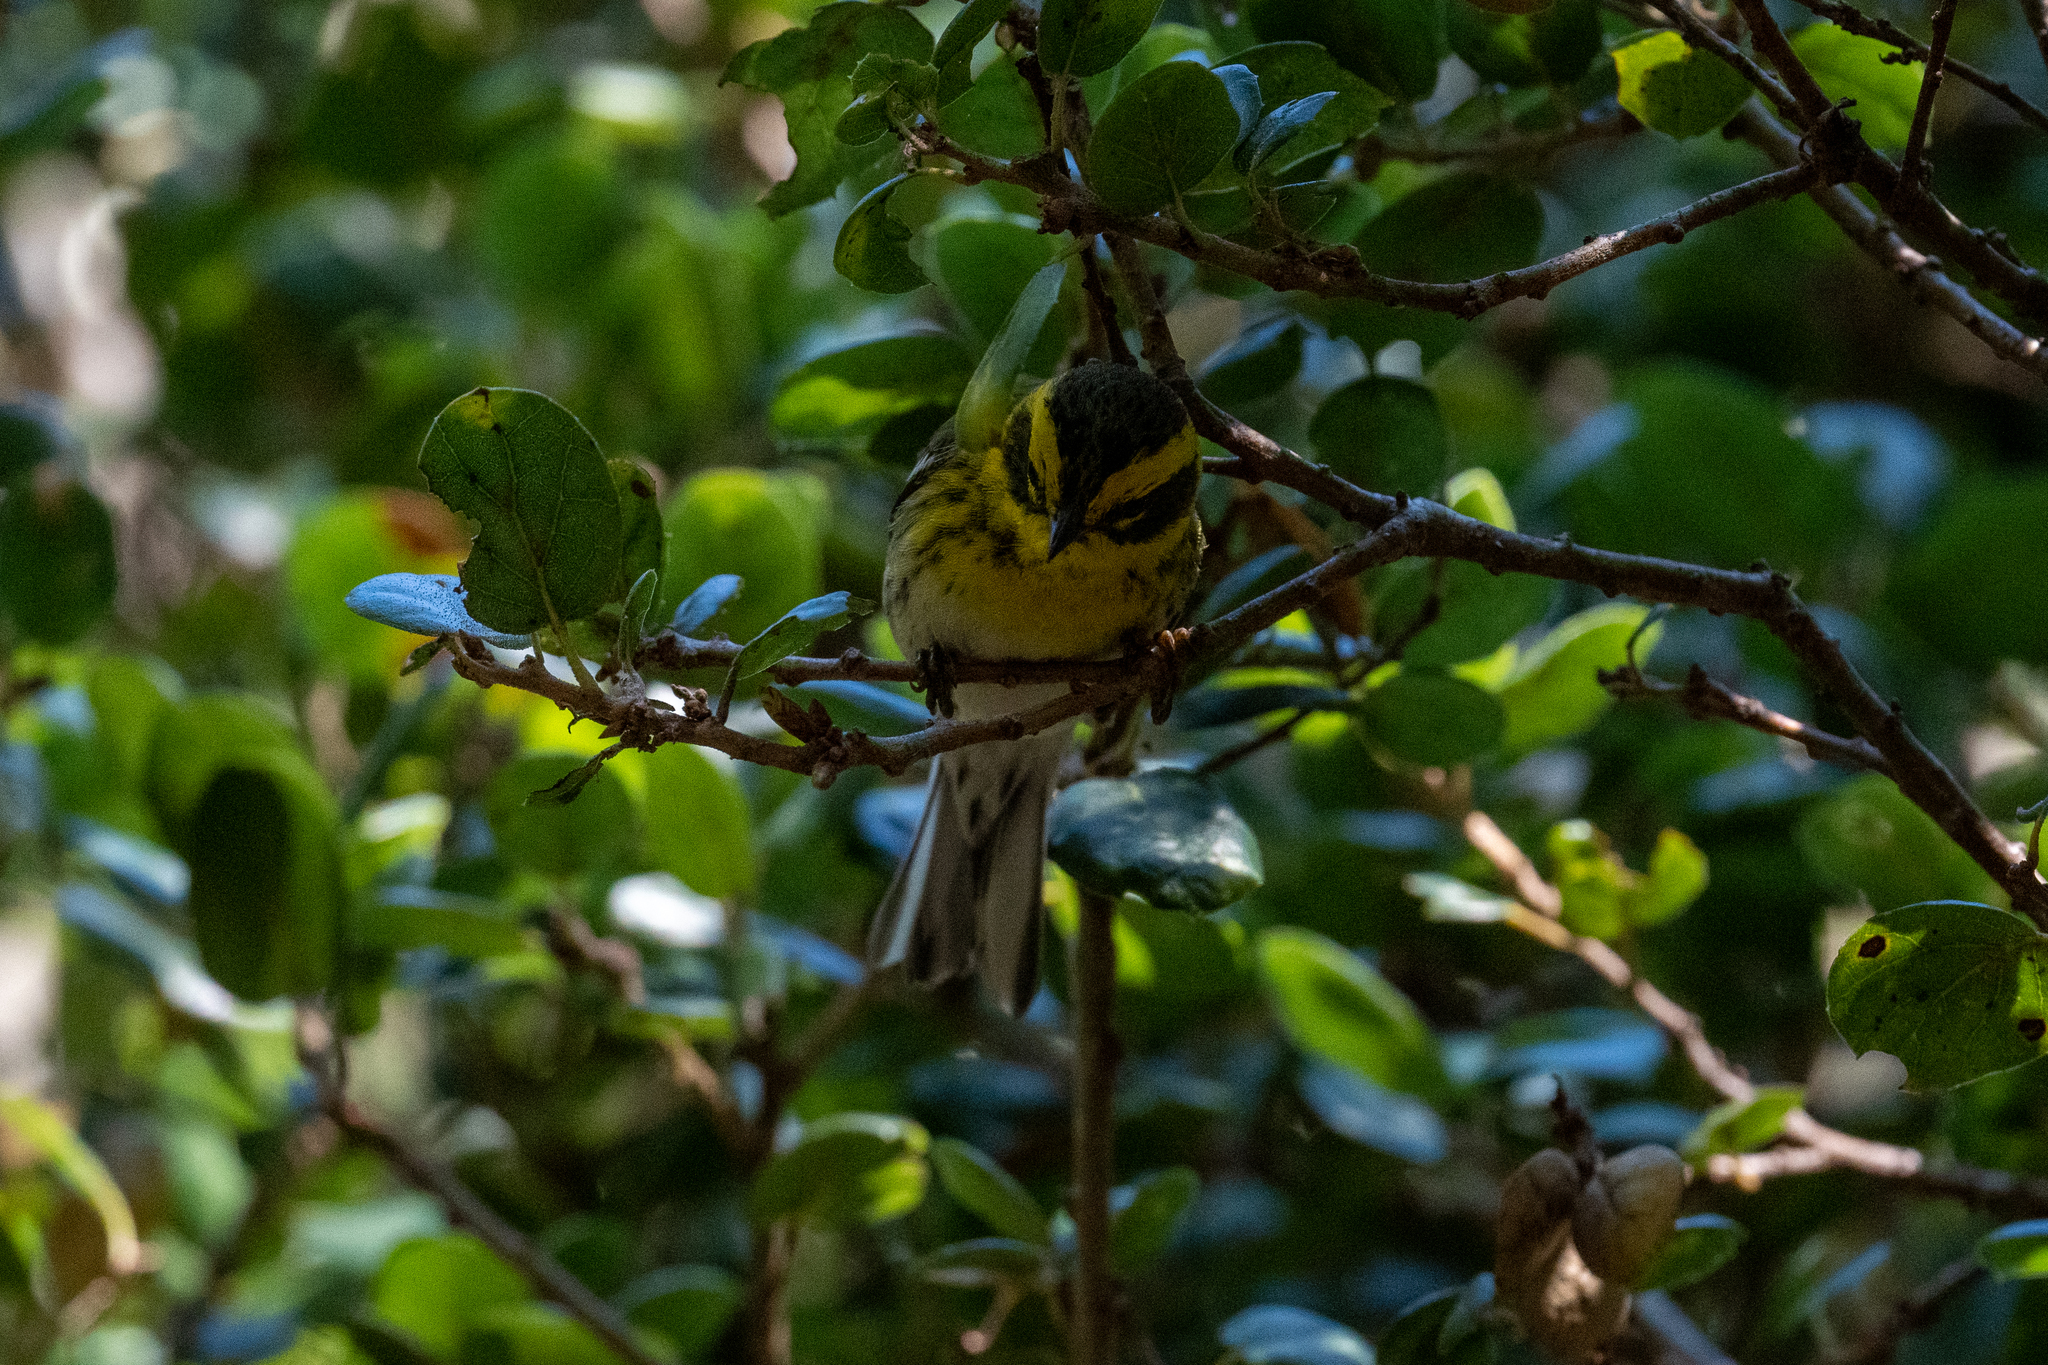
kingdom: Animalia
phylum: Chordata
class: Aves
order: Passeriformes
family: Parulidae
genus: Setophaga
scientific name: Setophaga townsendi
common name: Townsend's warbler
